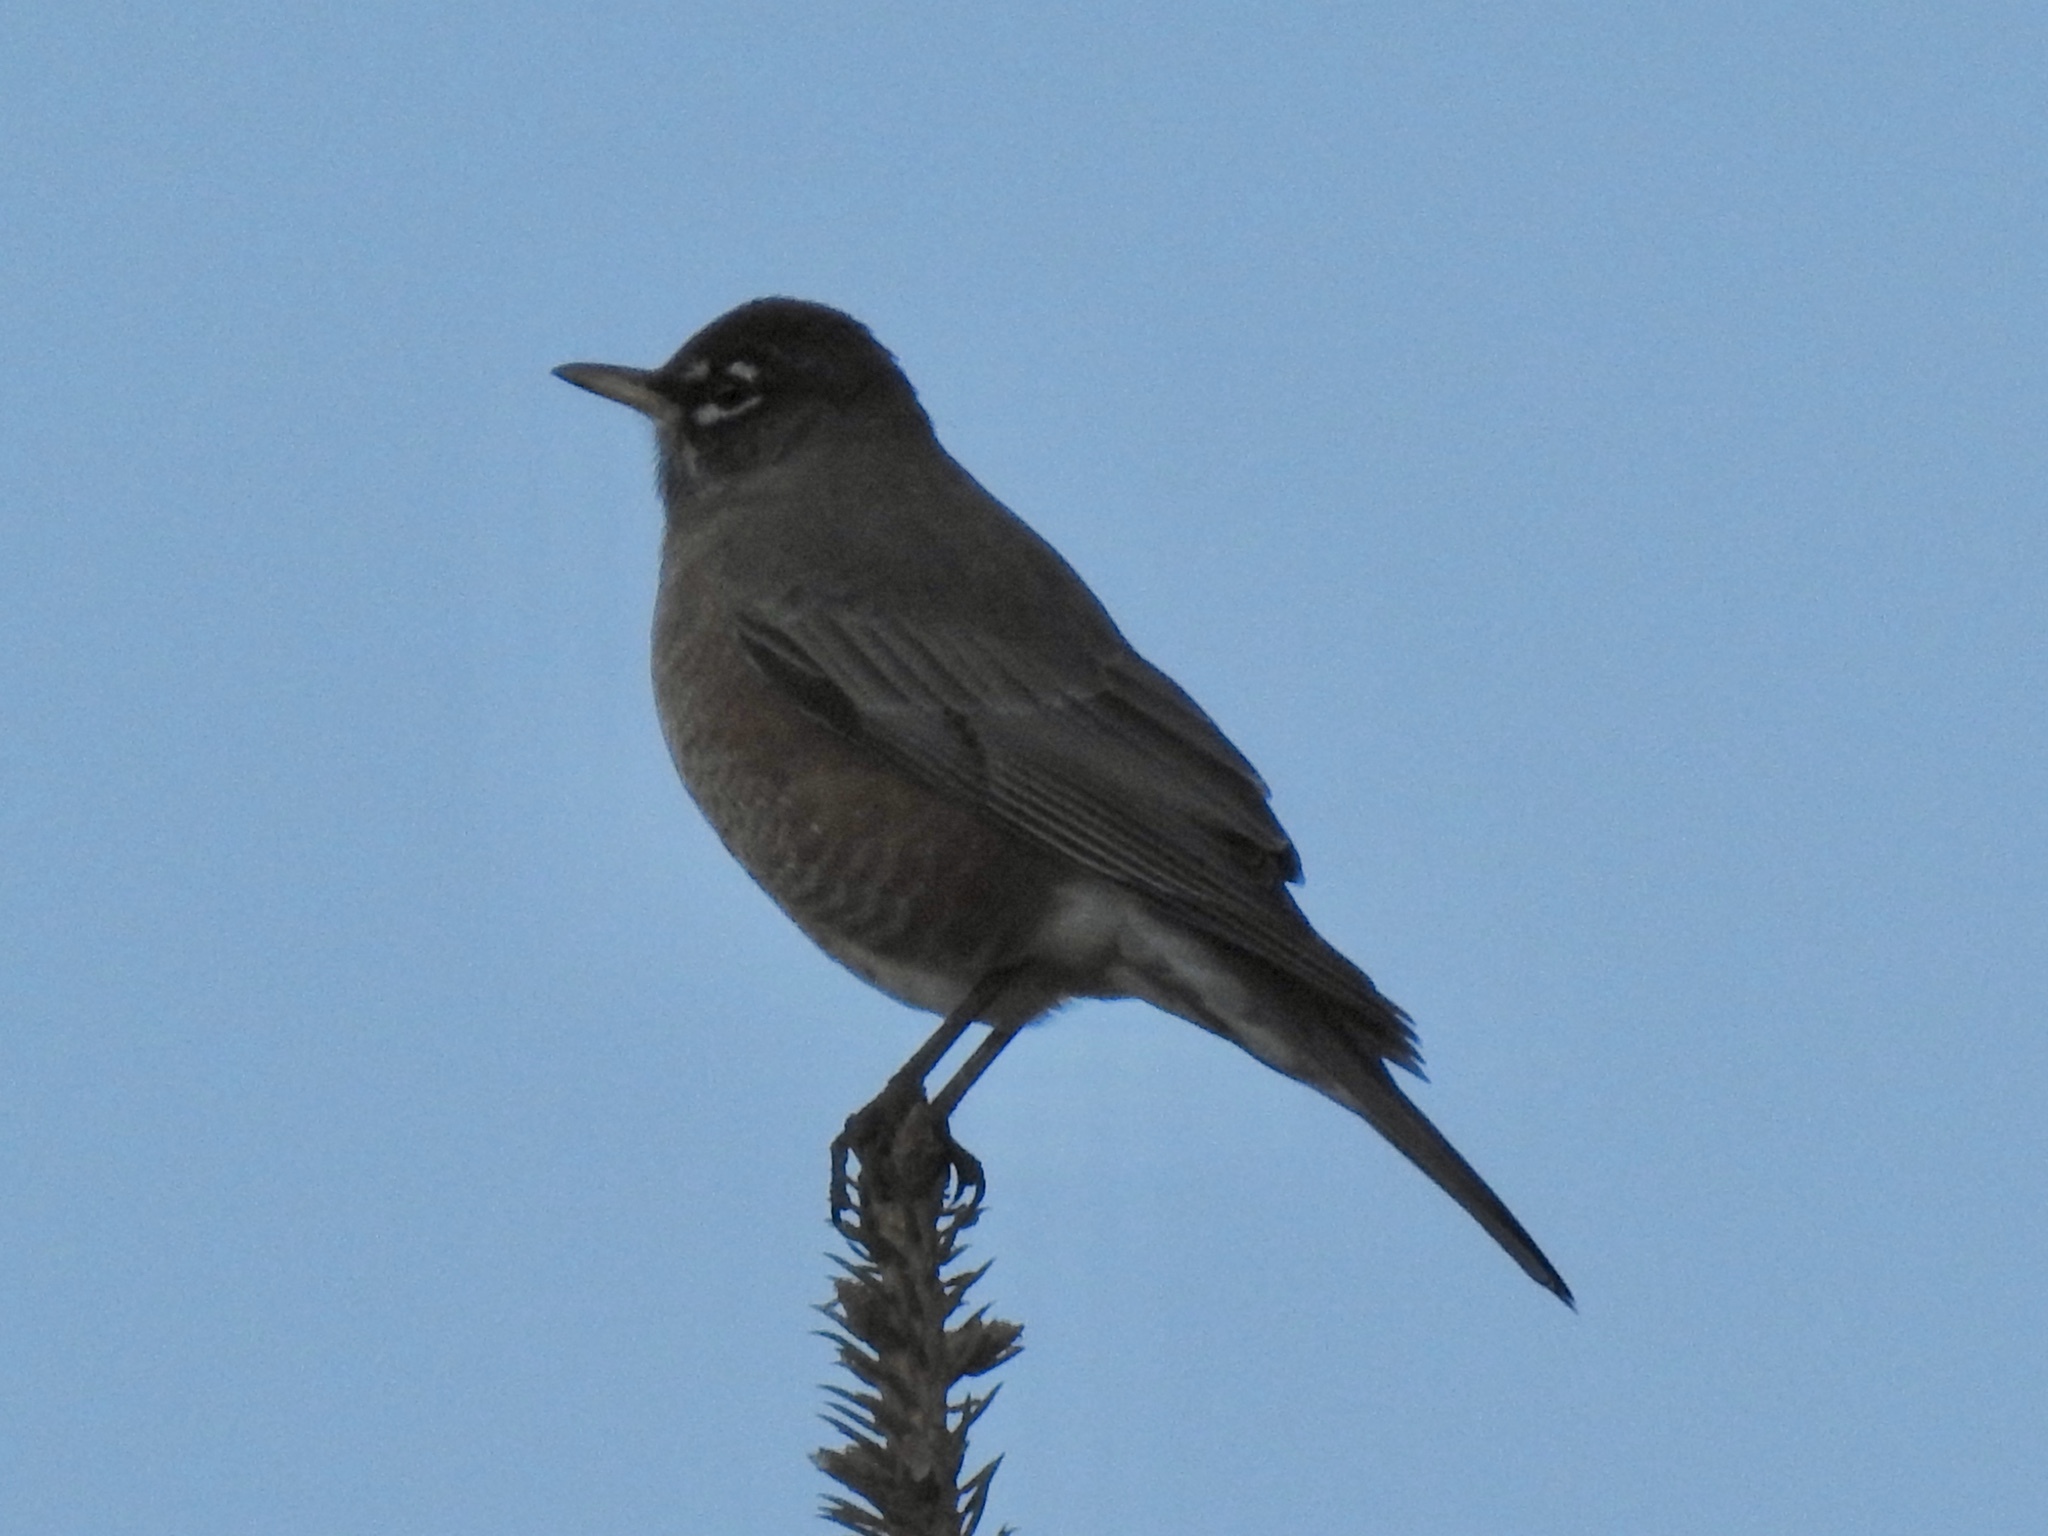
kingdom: Animalia
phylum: Chordata
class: Aves
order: Passeriformes
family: Turdidae
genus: Turdus
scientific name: Turdus migratorius
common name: American robin
